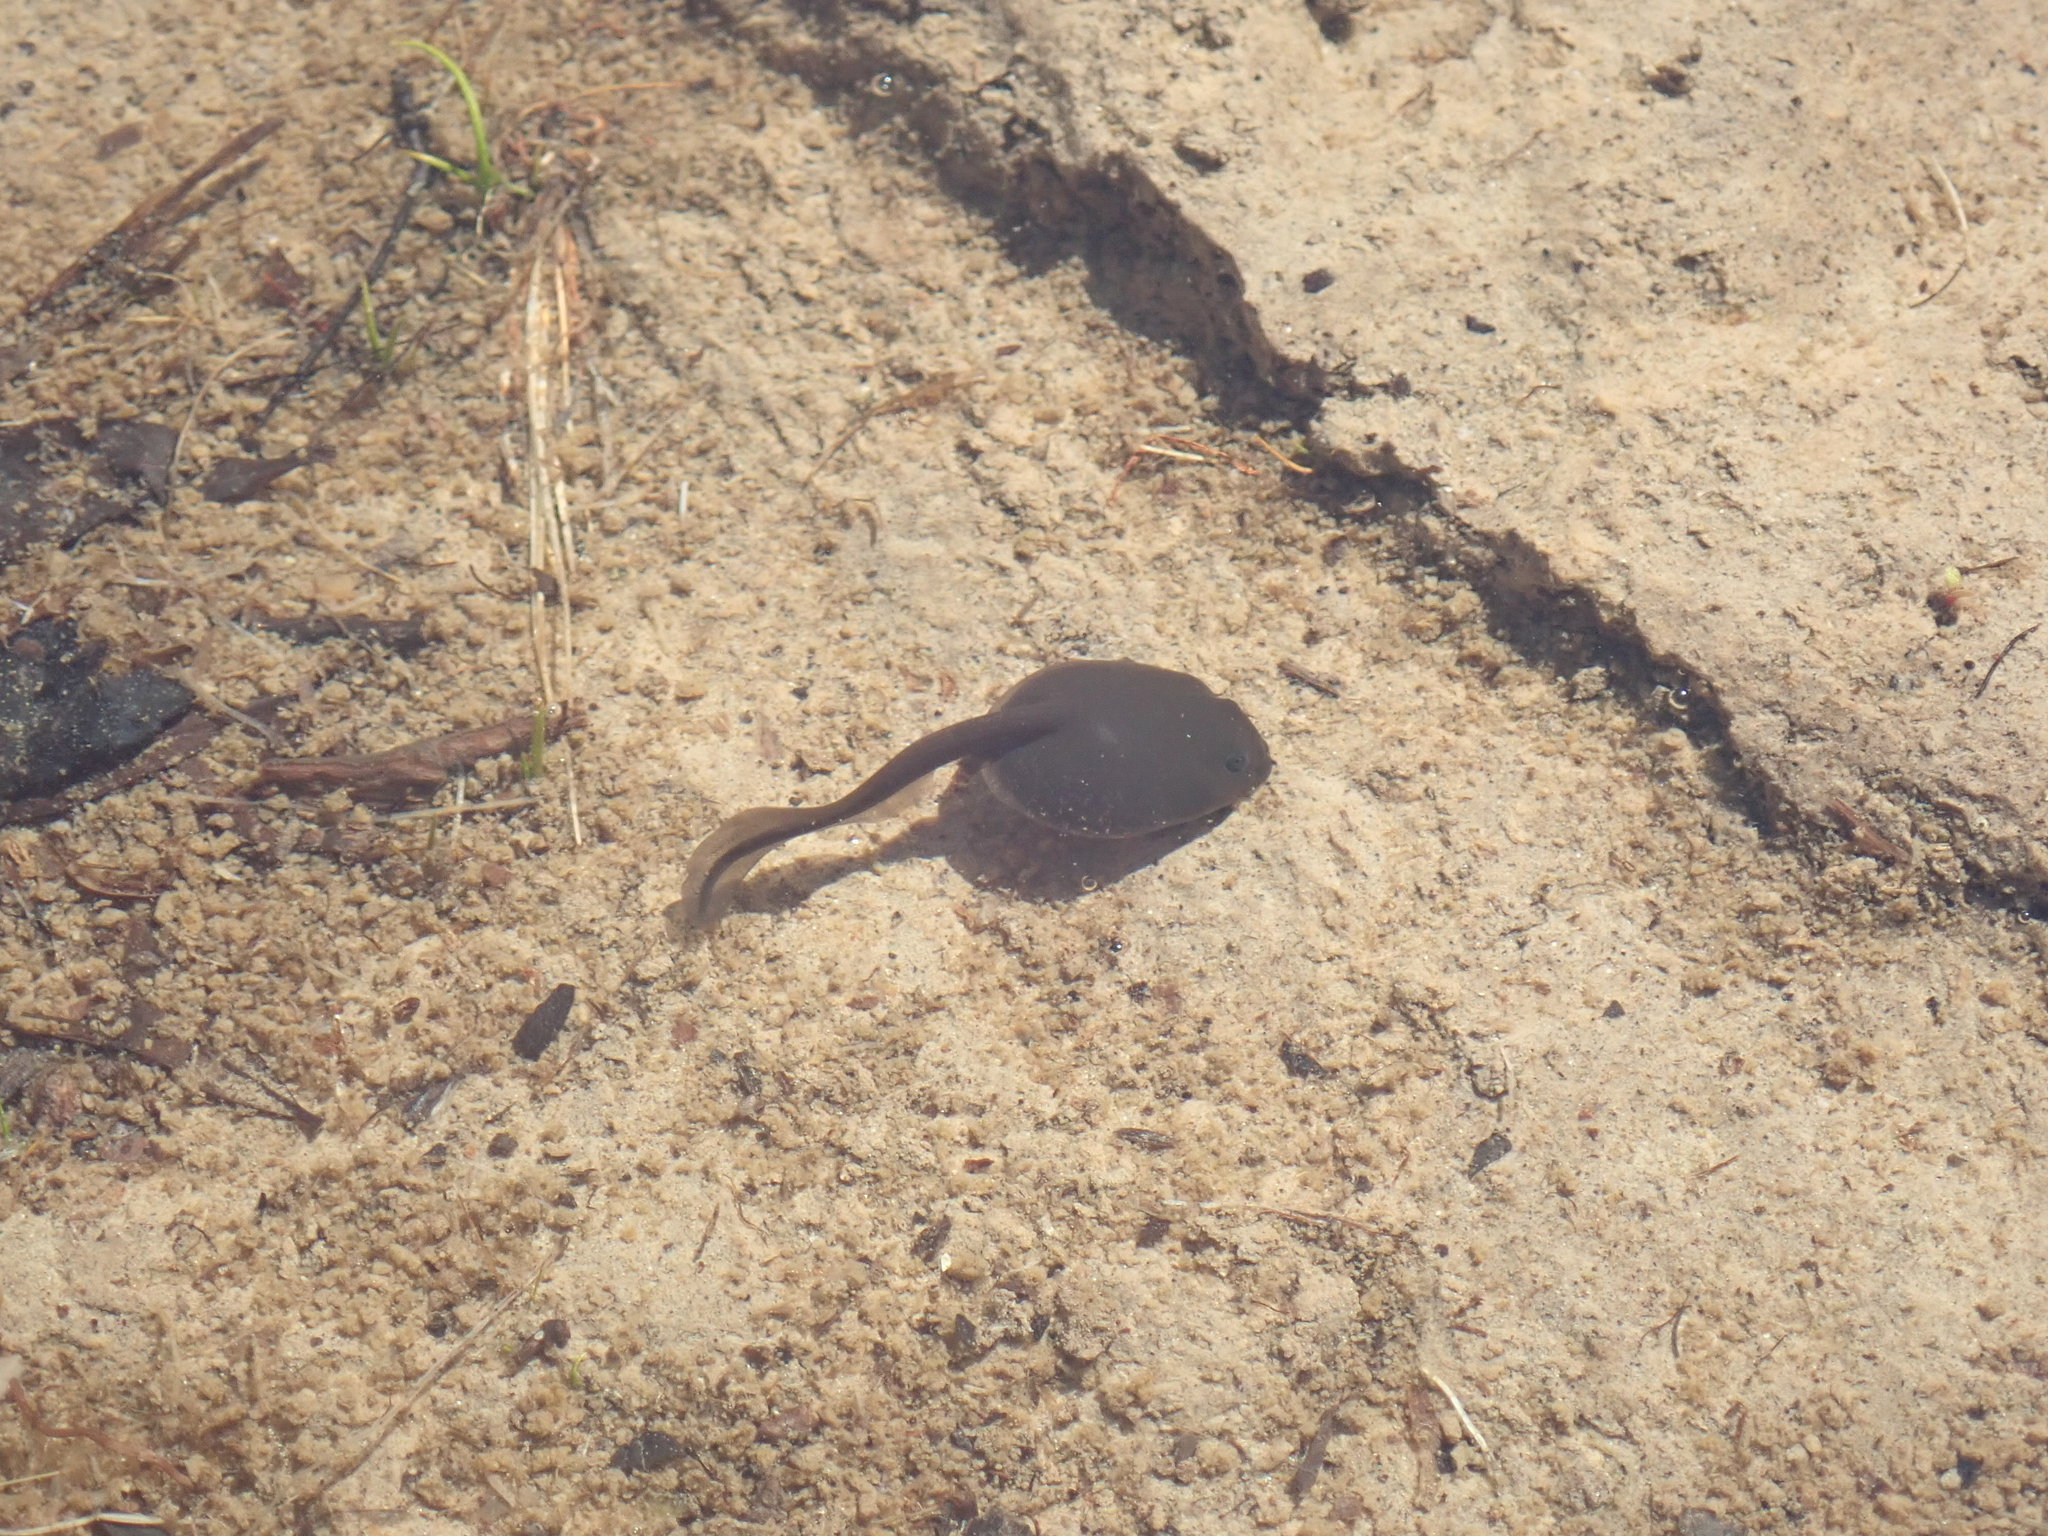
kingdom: Animalia
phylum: Chordata
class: Amphibia
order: Anura
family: Bufonidae
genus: Anaxyrus
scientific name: Anaxyrus boreas
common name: Western toad
